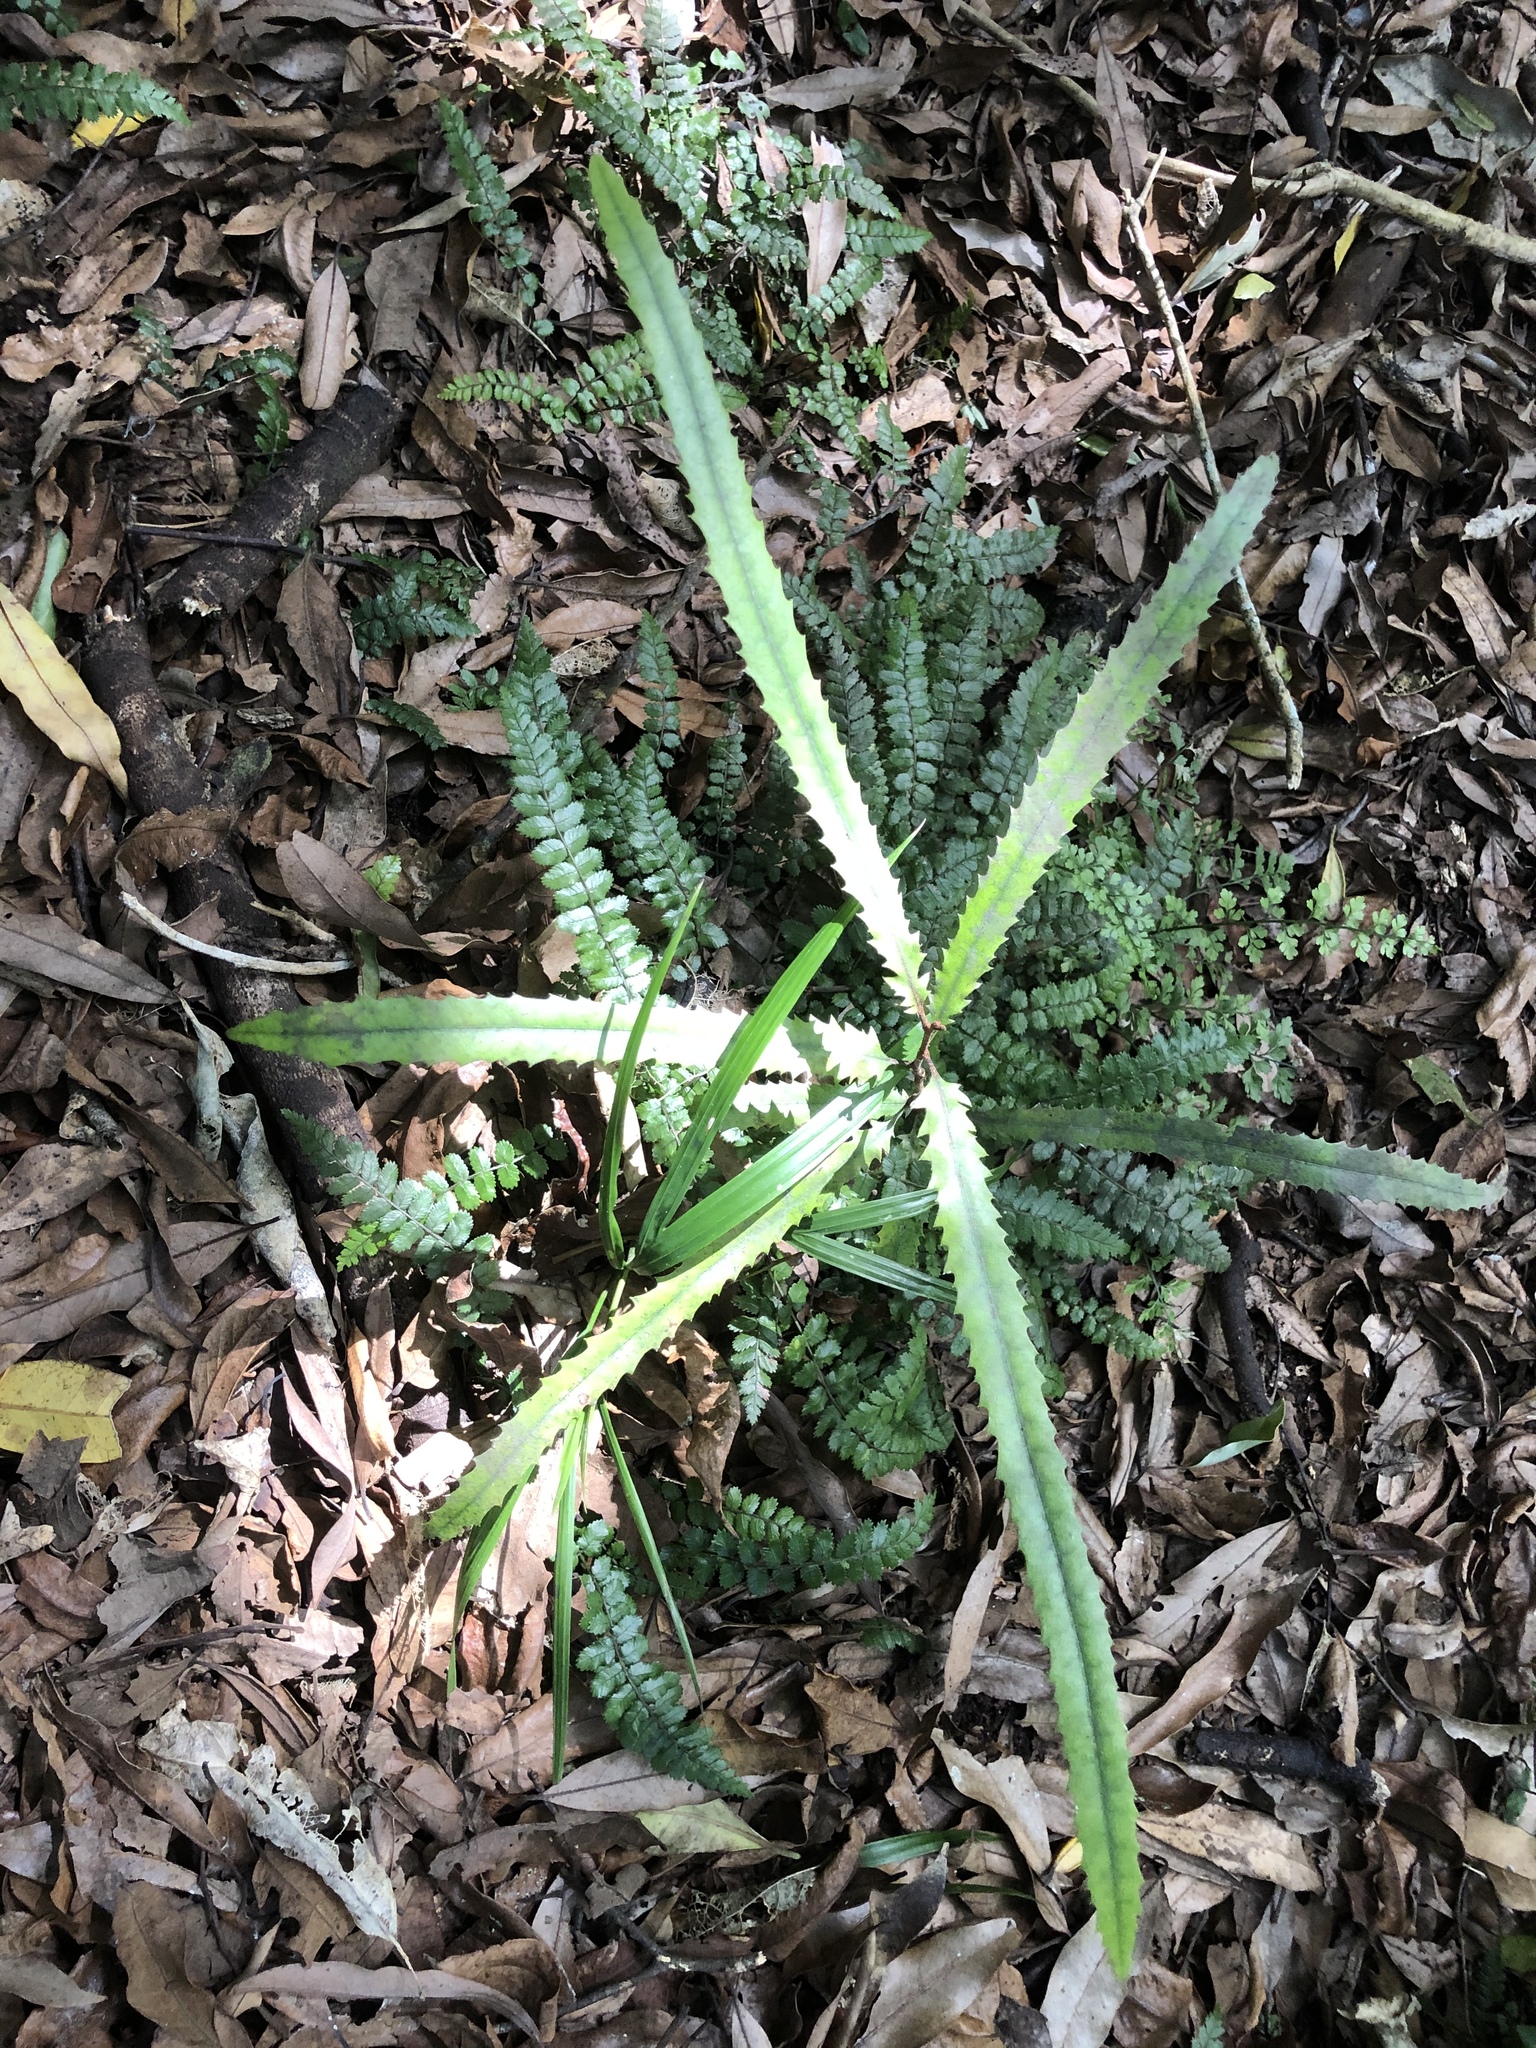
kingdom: Plantae
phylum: Tracheophyta
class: Magnoliopsida
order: Proteales
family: Proteaceae
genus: Knightia
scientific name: Knightia excelsa
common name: New zealand-honeysuckle
